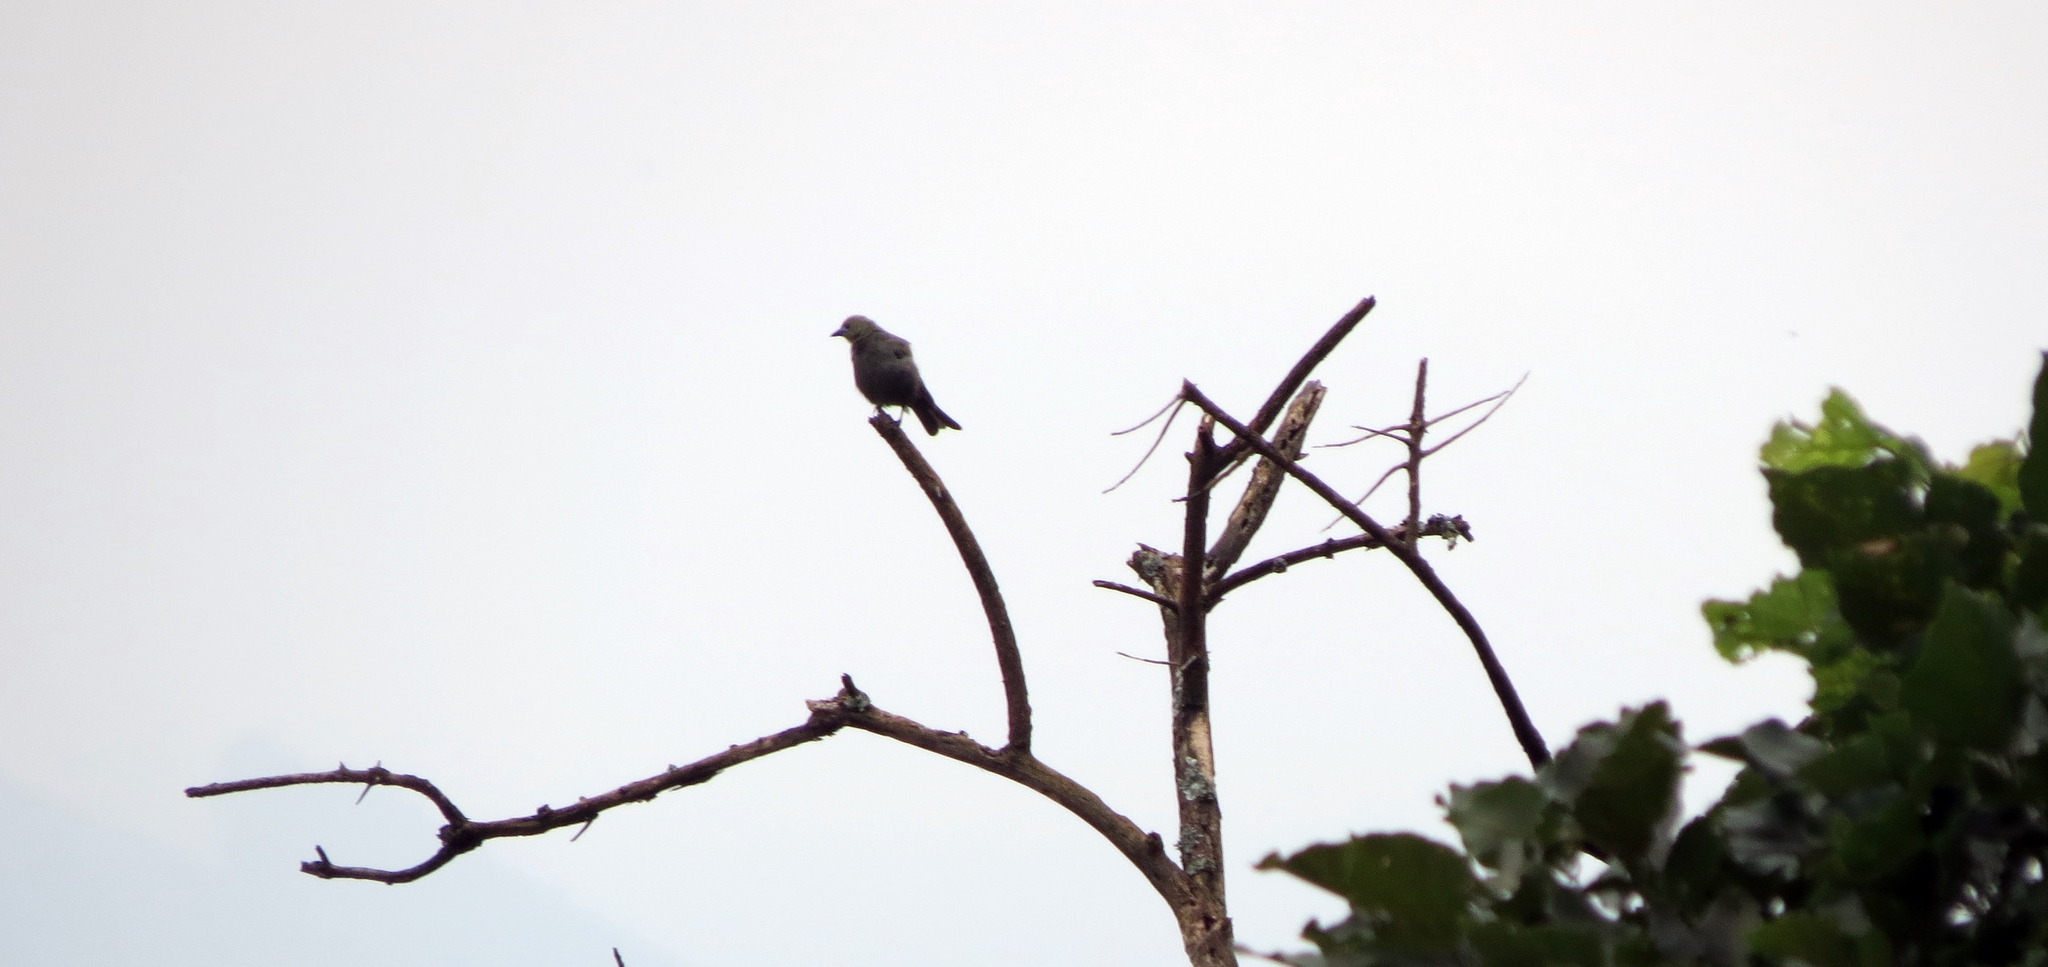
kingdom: Animalia
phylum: Chordata
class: Aves
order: Passeriformes
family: Thraupidae
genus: Thraupis
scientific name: Thraupis palmarum
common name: Palm tanager
